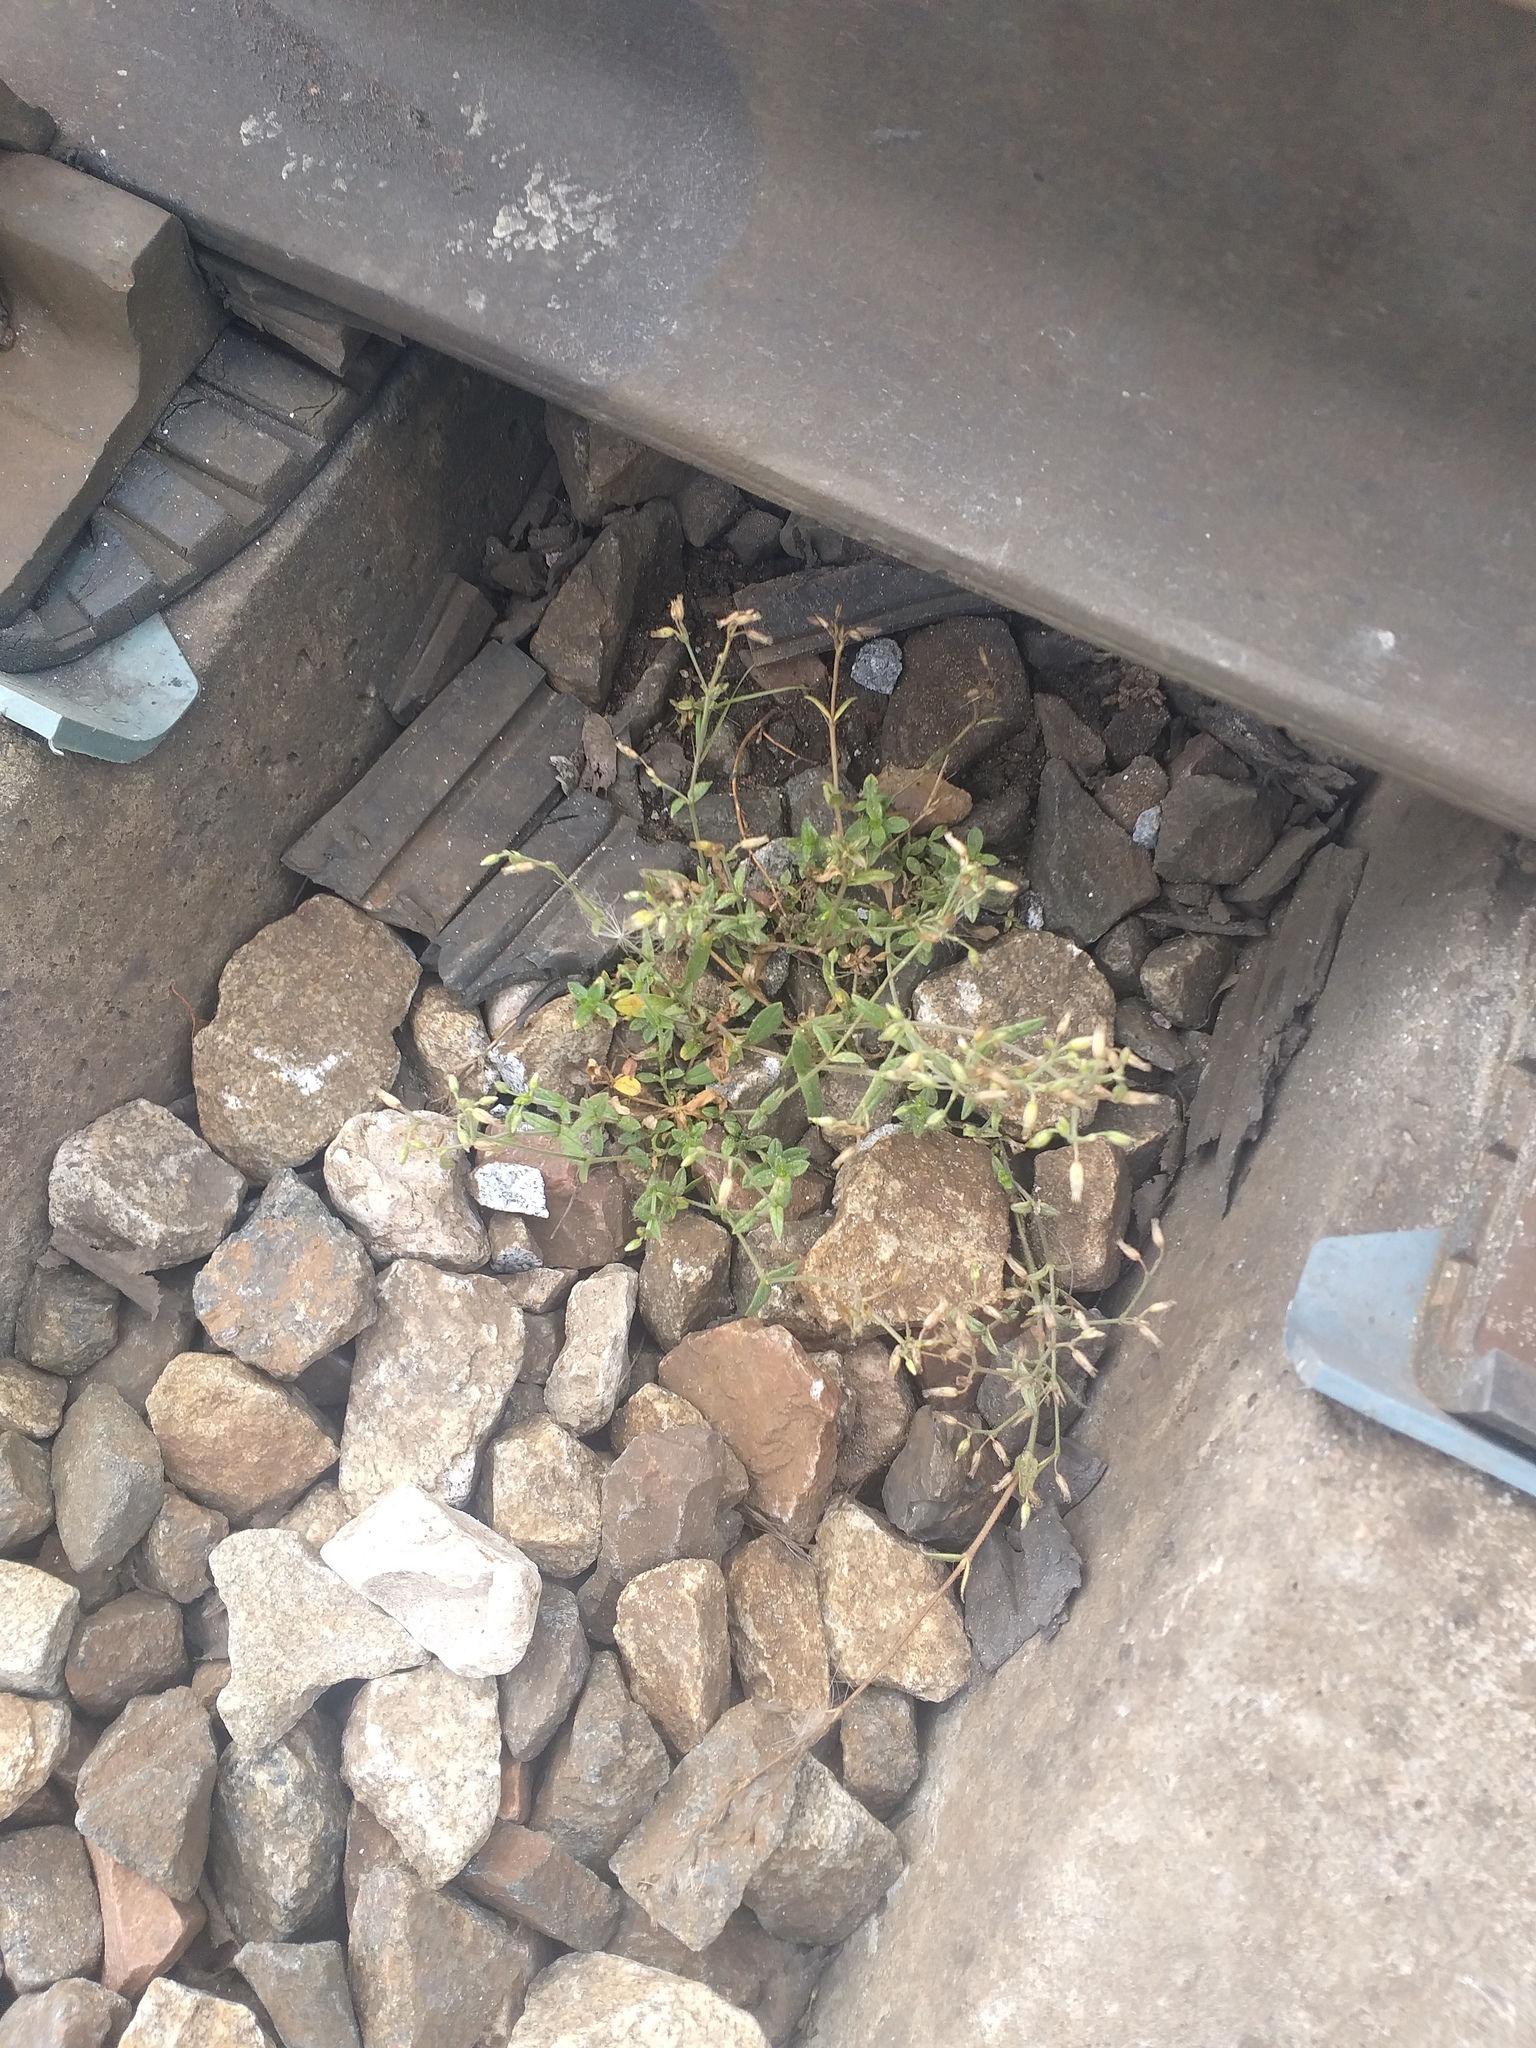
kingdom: Plantae
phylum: Tracheophyta
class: Magnoliopsida
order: Caryophyllales
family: Caryophyllaceae
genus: Cerastium
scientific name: Cerastium holosteoides
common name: Big chickweed
